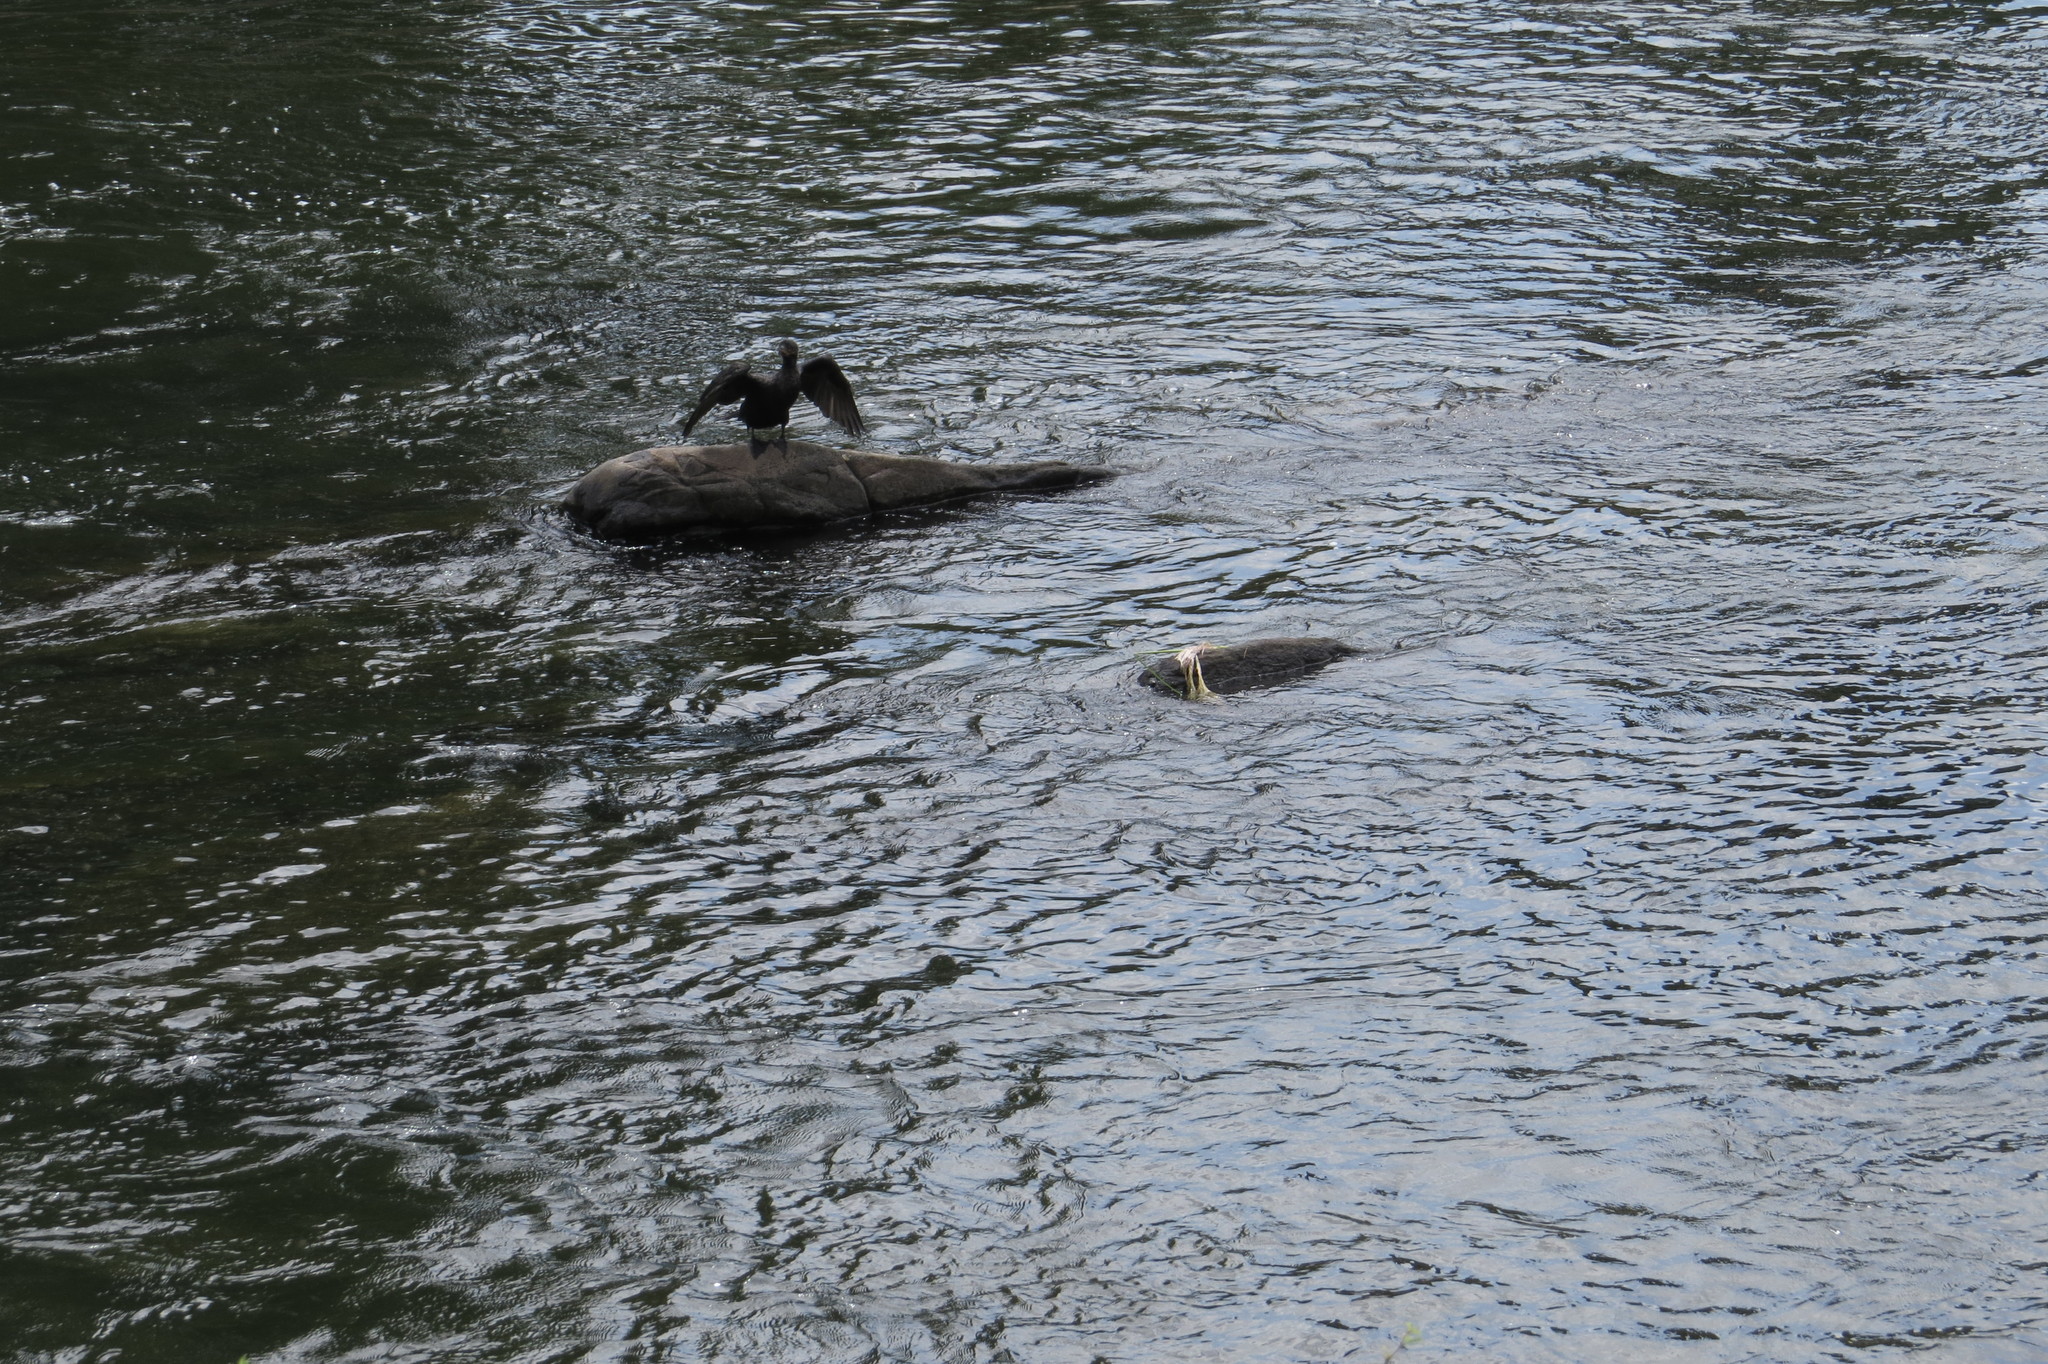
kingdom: Animalia
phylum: Chordata
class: Aves
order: Suliformes
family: Phalacrocoracidae
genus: Phalacrocorax
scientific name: Phalacrocorax brasilianus
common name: Neotropic cormorant
